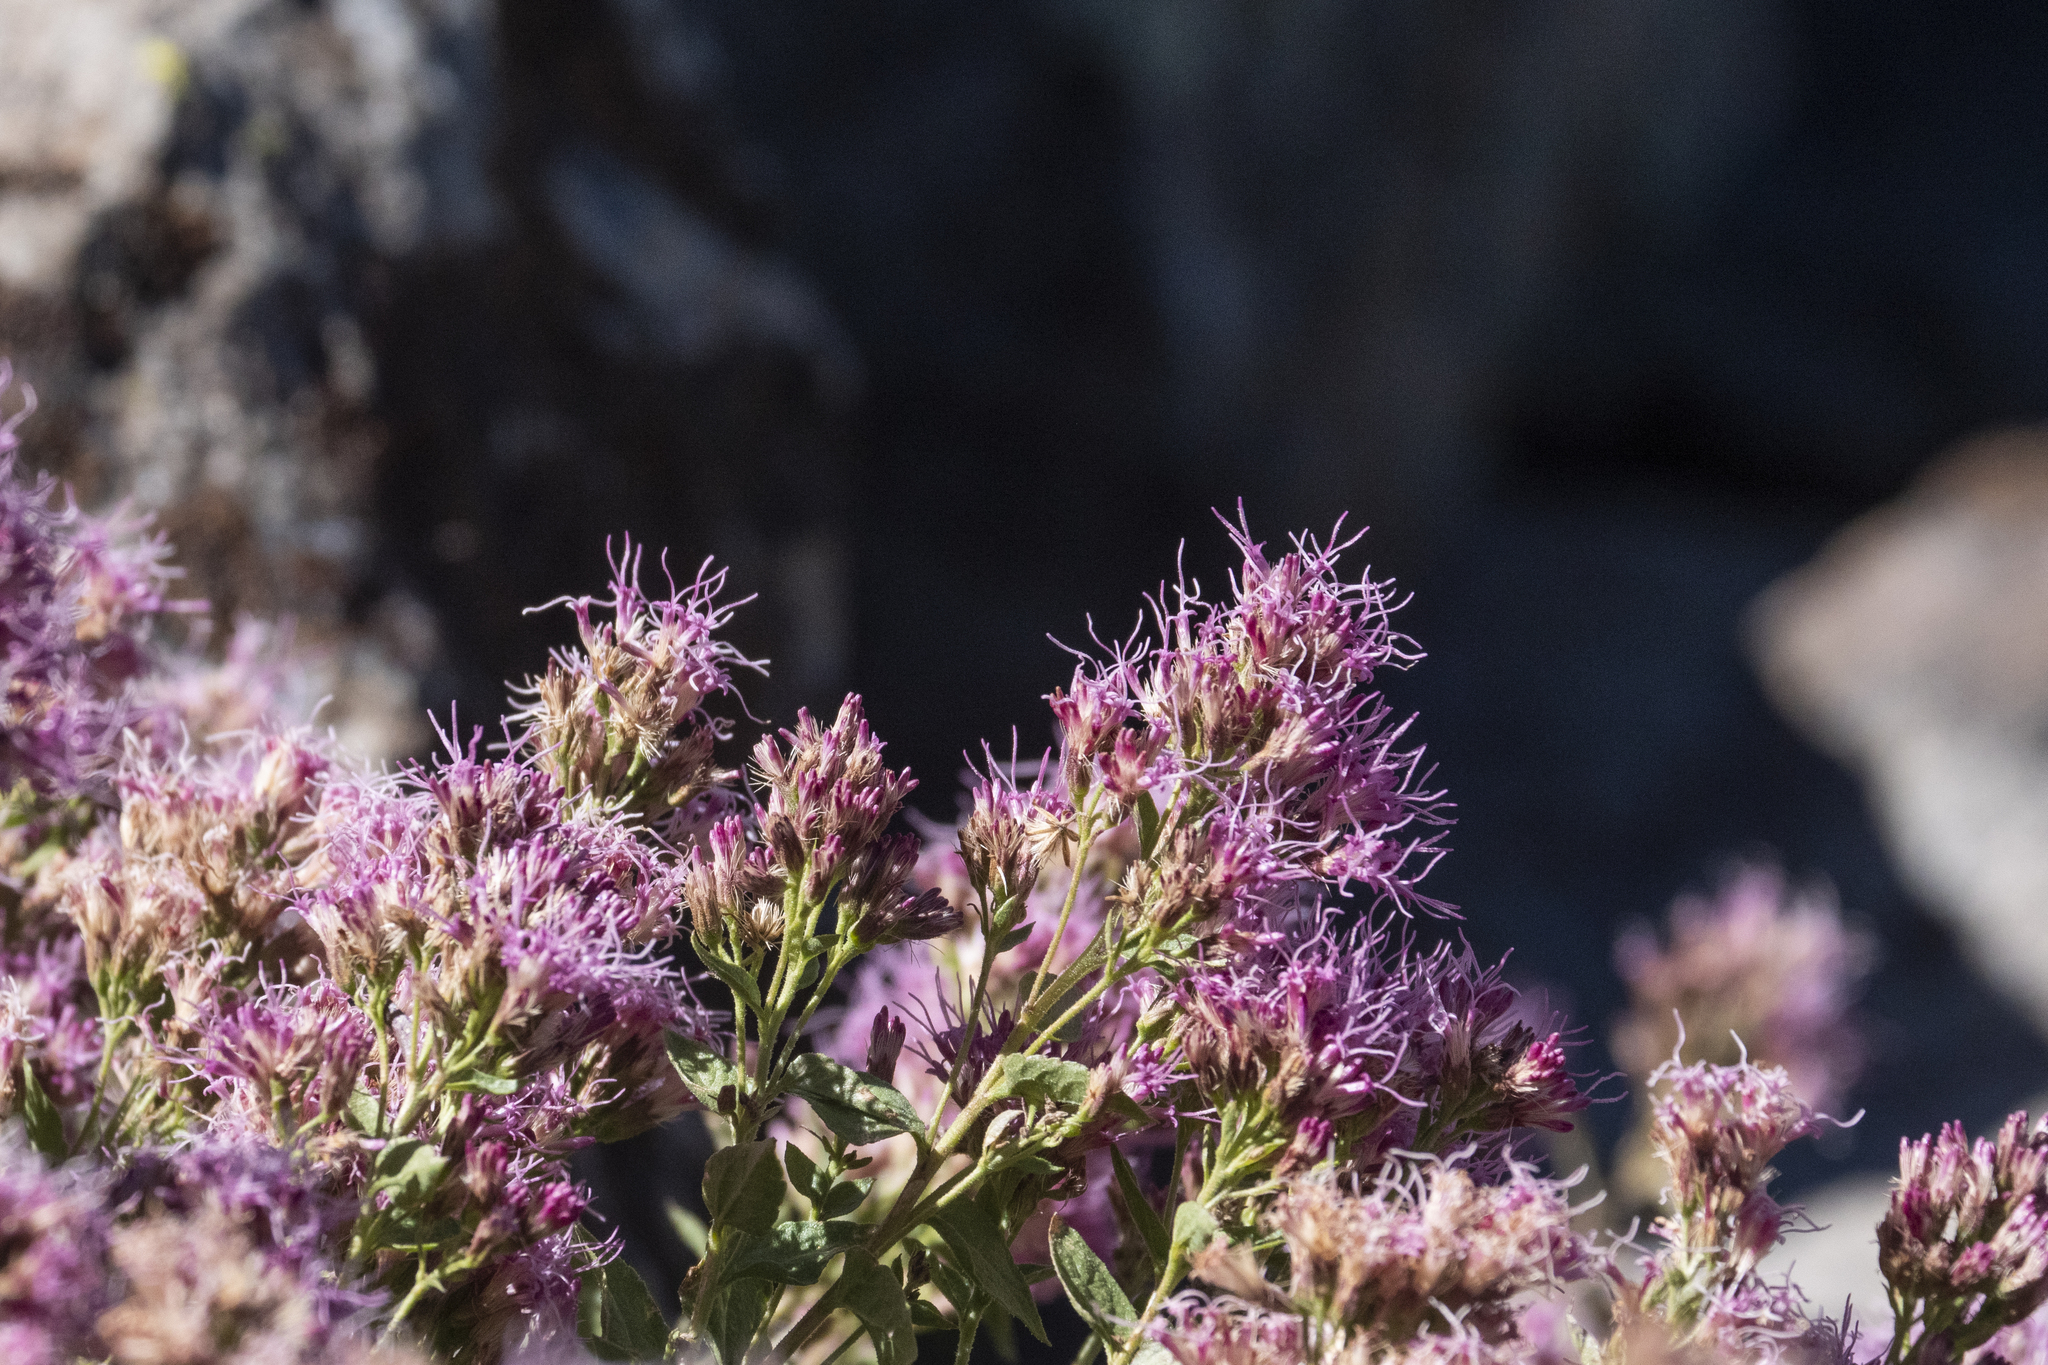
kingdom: Plantae
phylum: Tracheophyta
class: Magnoliopsida
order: Asterales
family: Asteraceae
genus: Ageratina
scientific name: Ageratina occidentalis
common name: Western snakeroot
